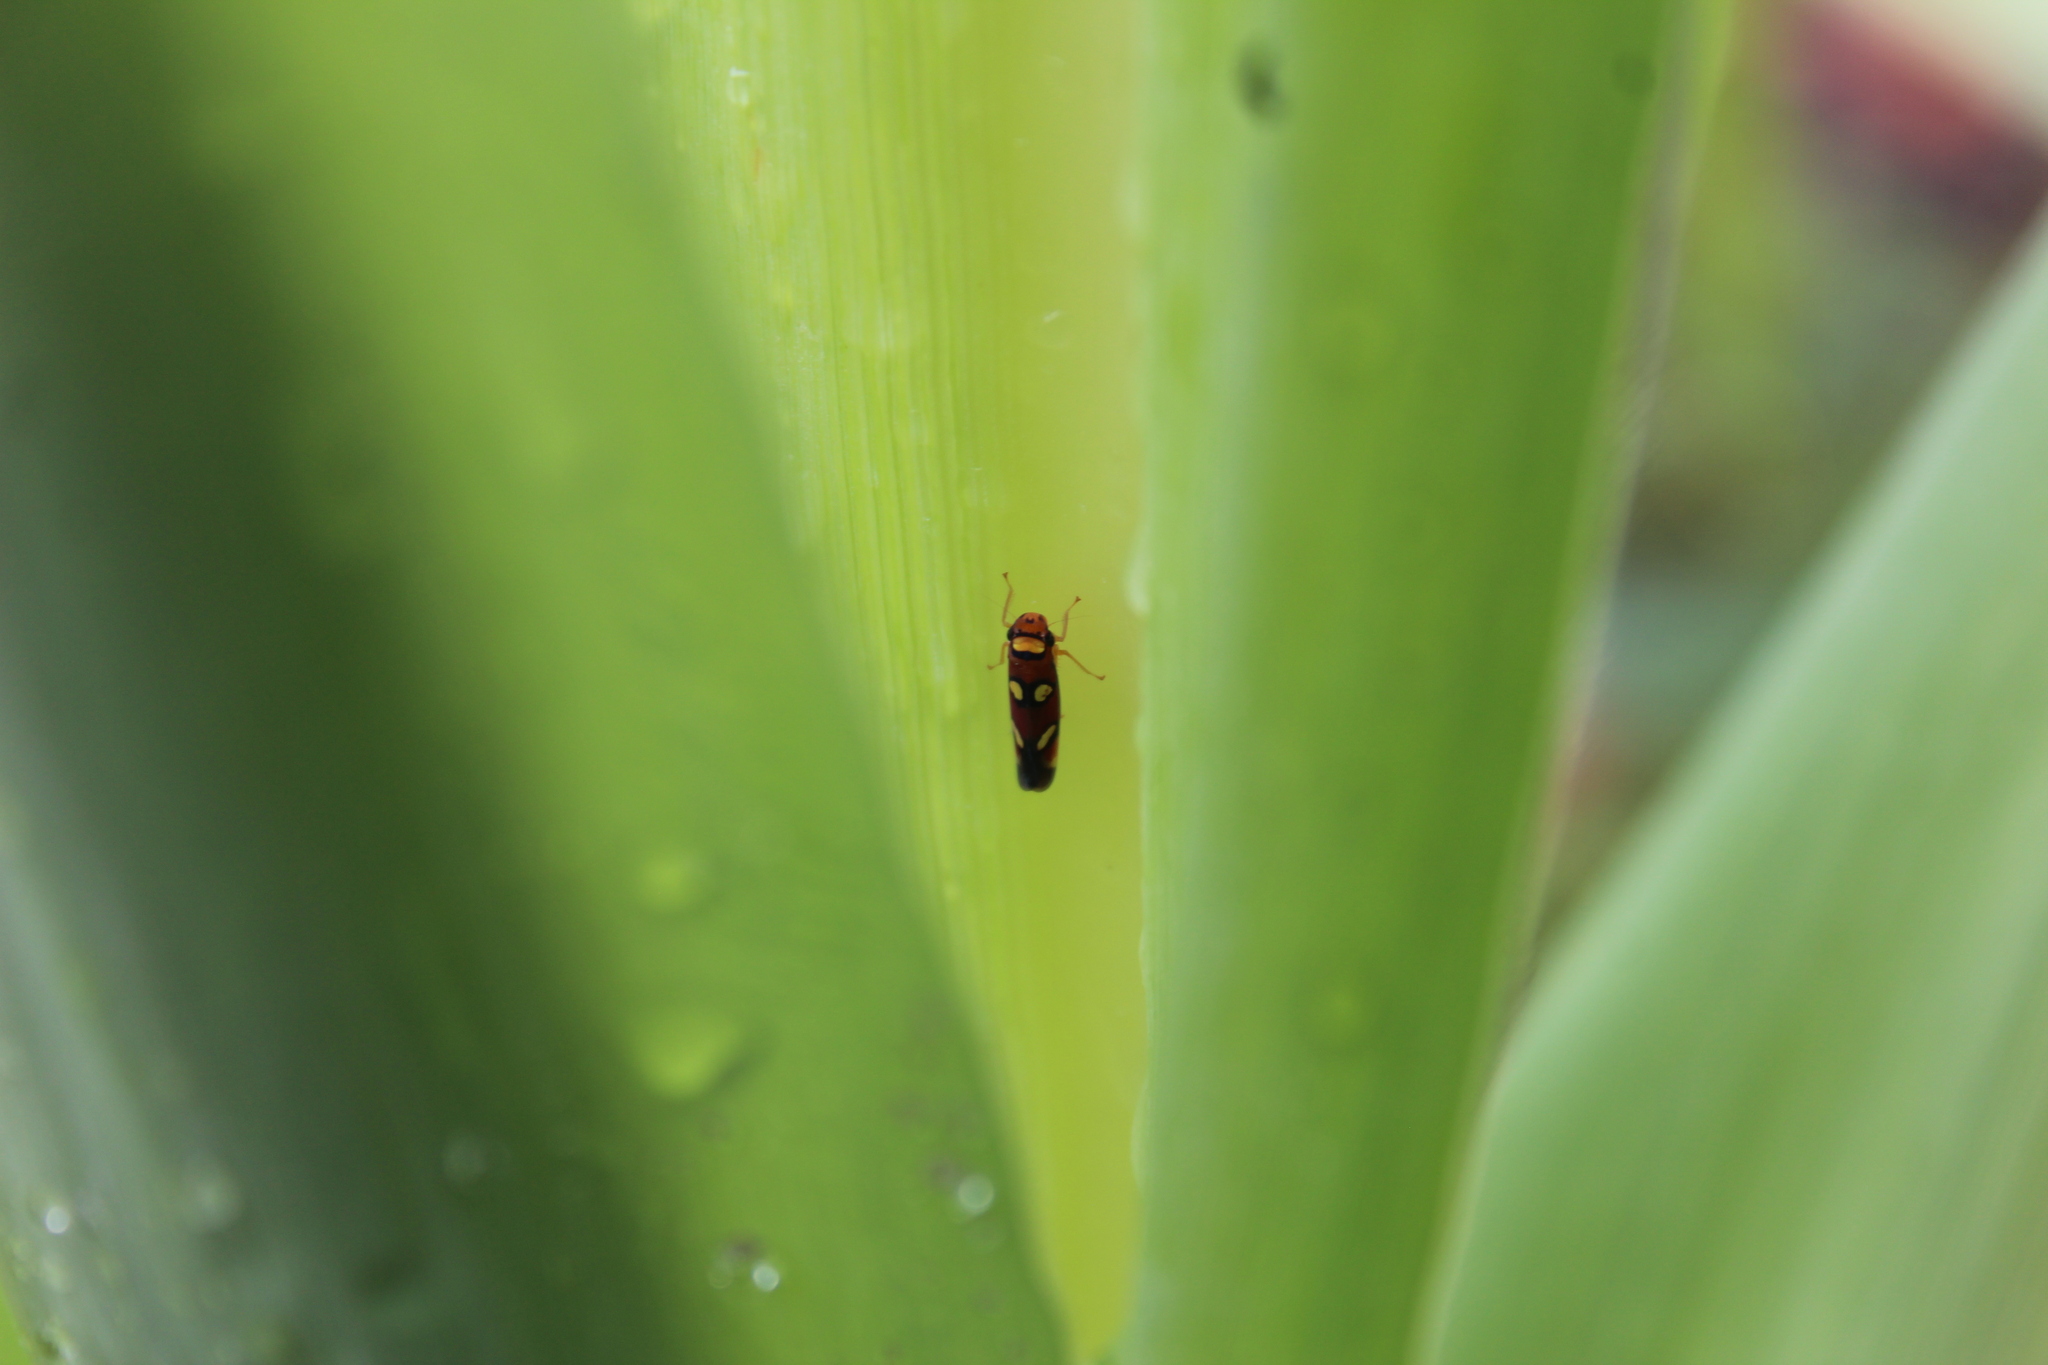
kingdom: Animalia
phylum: Arthropoda
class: Insecta
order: Hemiptera
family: Cicadellidae
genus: Erythrogonia
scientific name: Erythrogonia areolata
